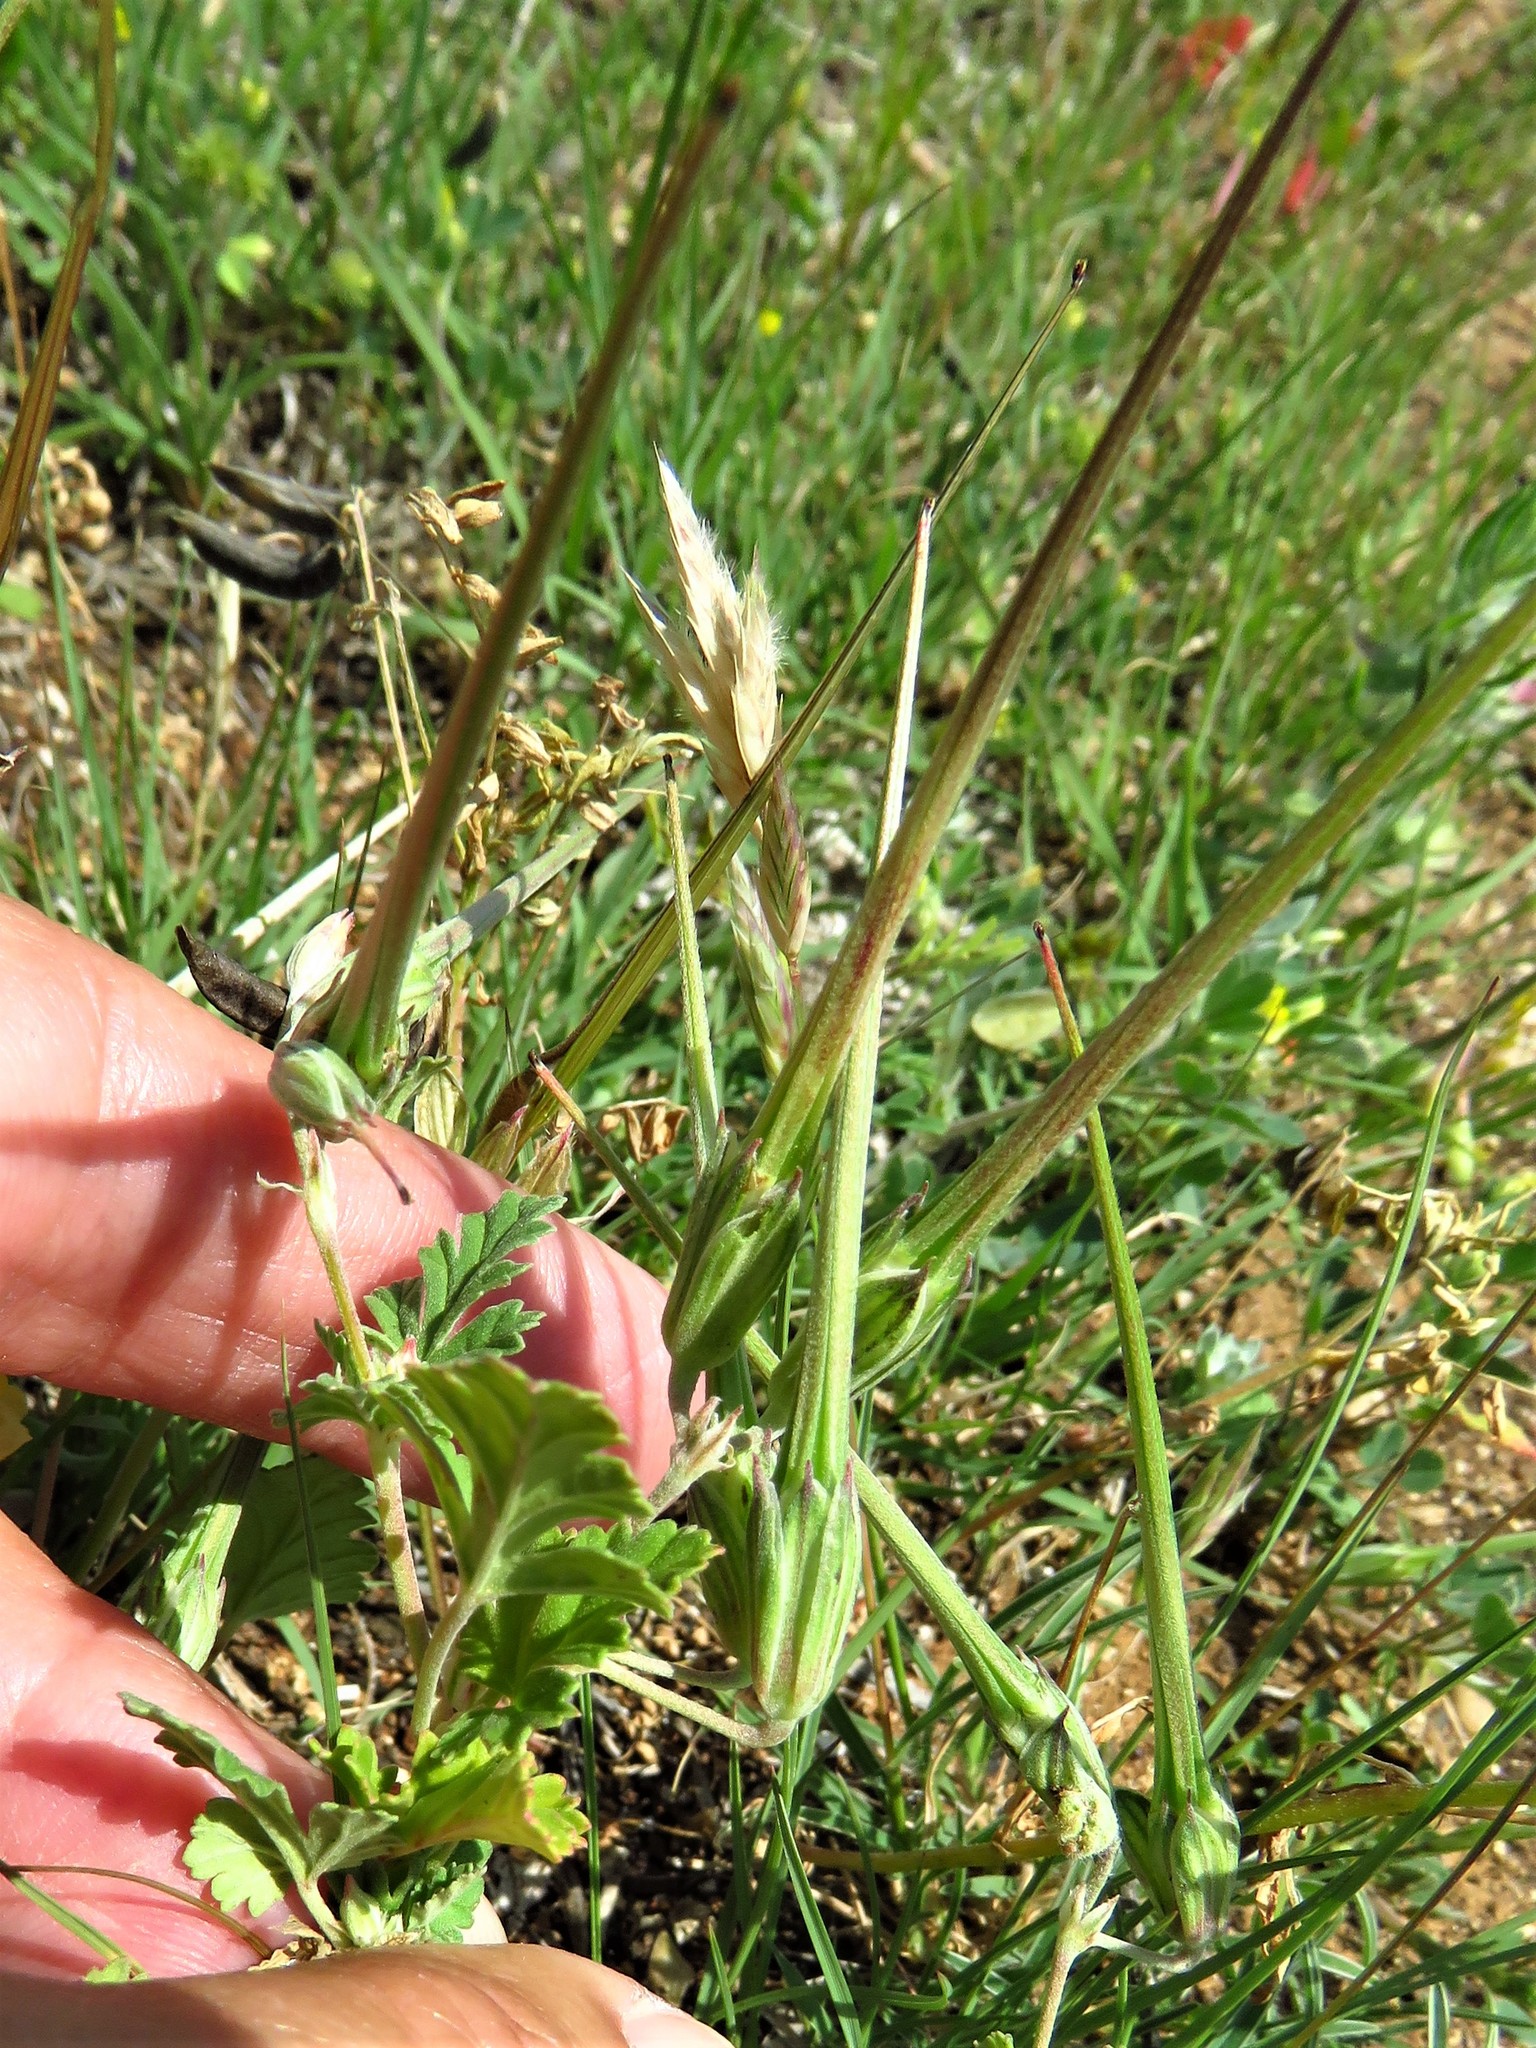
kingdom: Plantae
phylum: Tracheophyta
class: Magnoliopsida
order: Geraniales
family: Geraniaceae
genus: Erodium
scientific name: Erodium cicutarium
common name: Common stork's-bill
